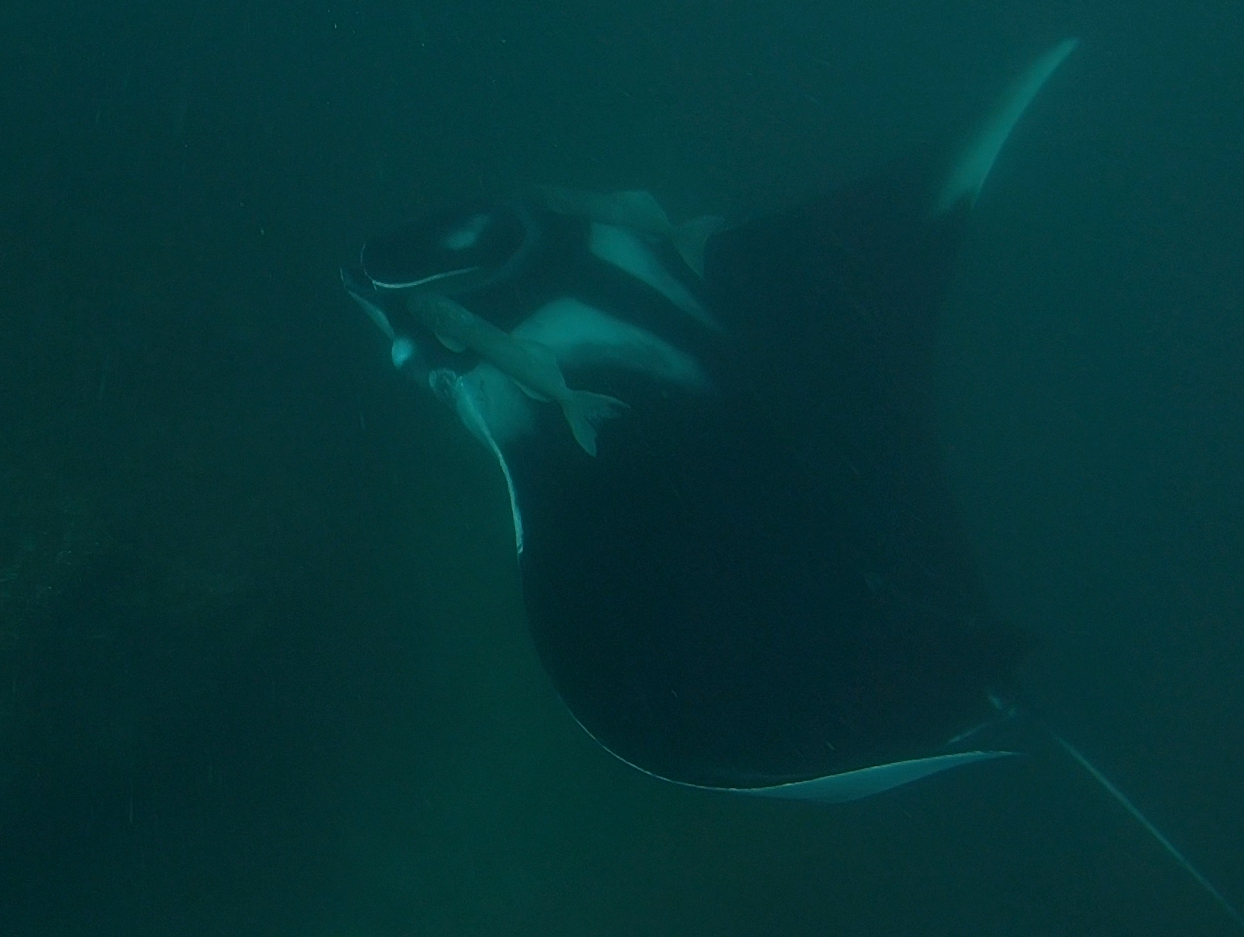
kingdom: Animalia
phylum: Chordata
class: Elasmobranchii
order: Myliobatiformes
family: Myliobatidae
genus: Mobula
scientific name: Mobula birostris
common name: Manta ray
